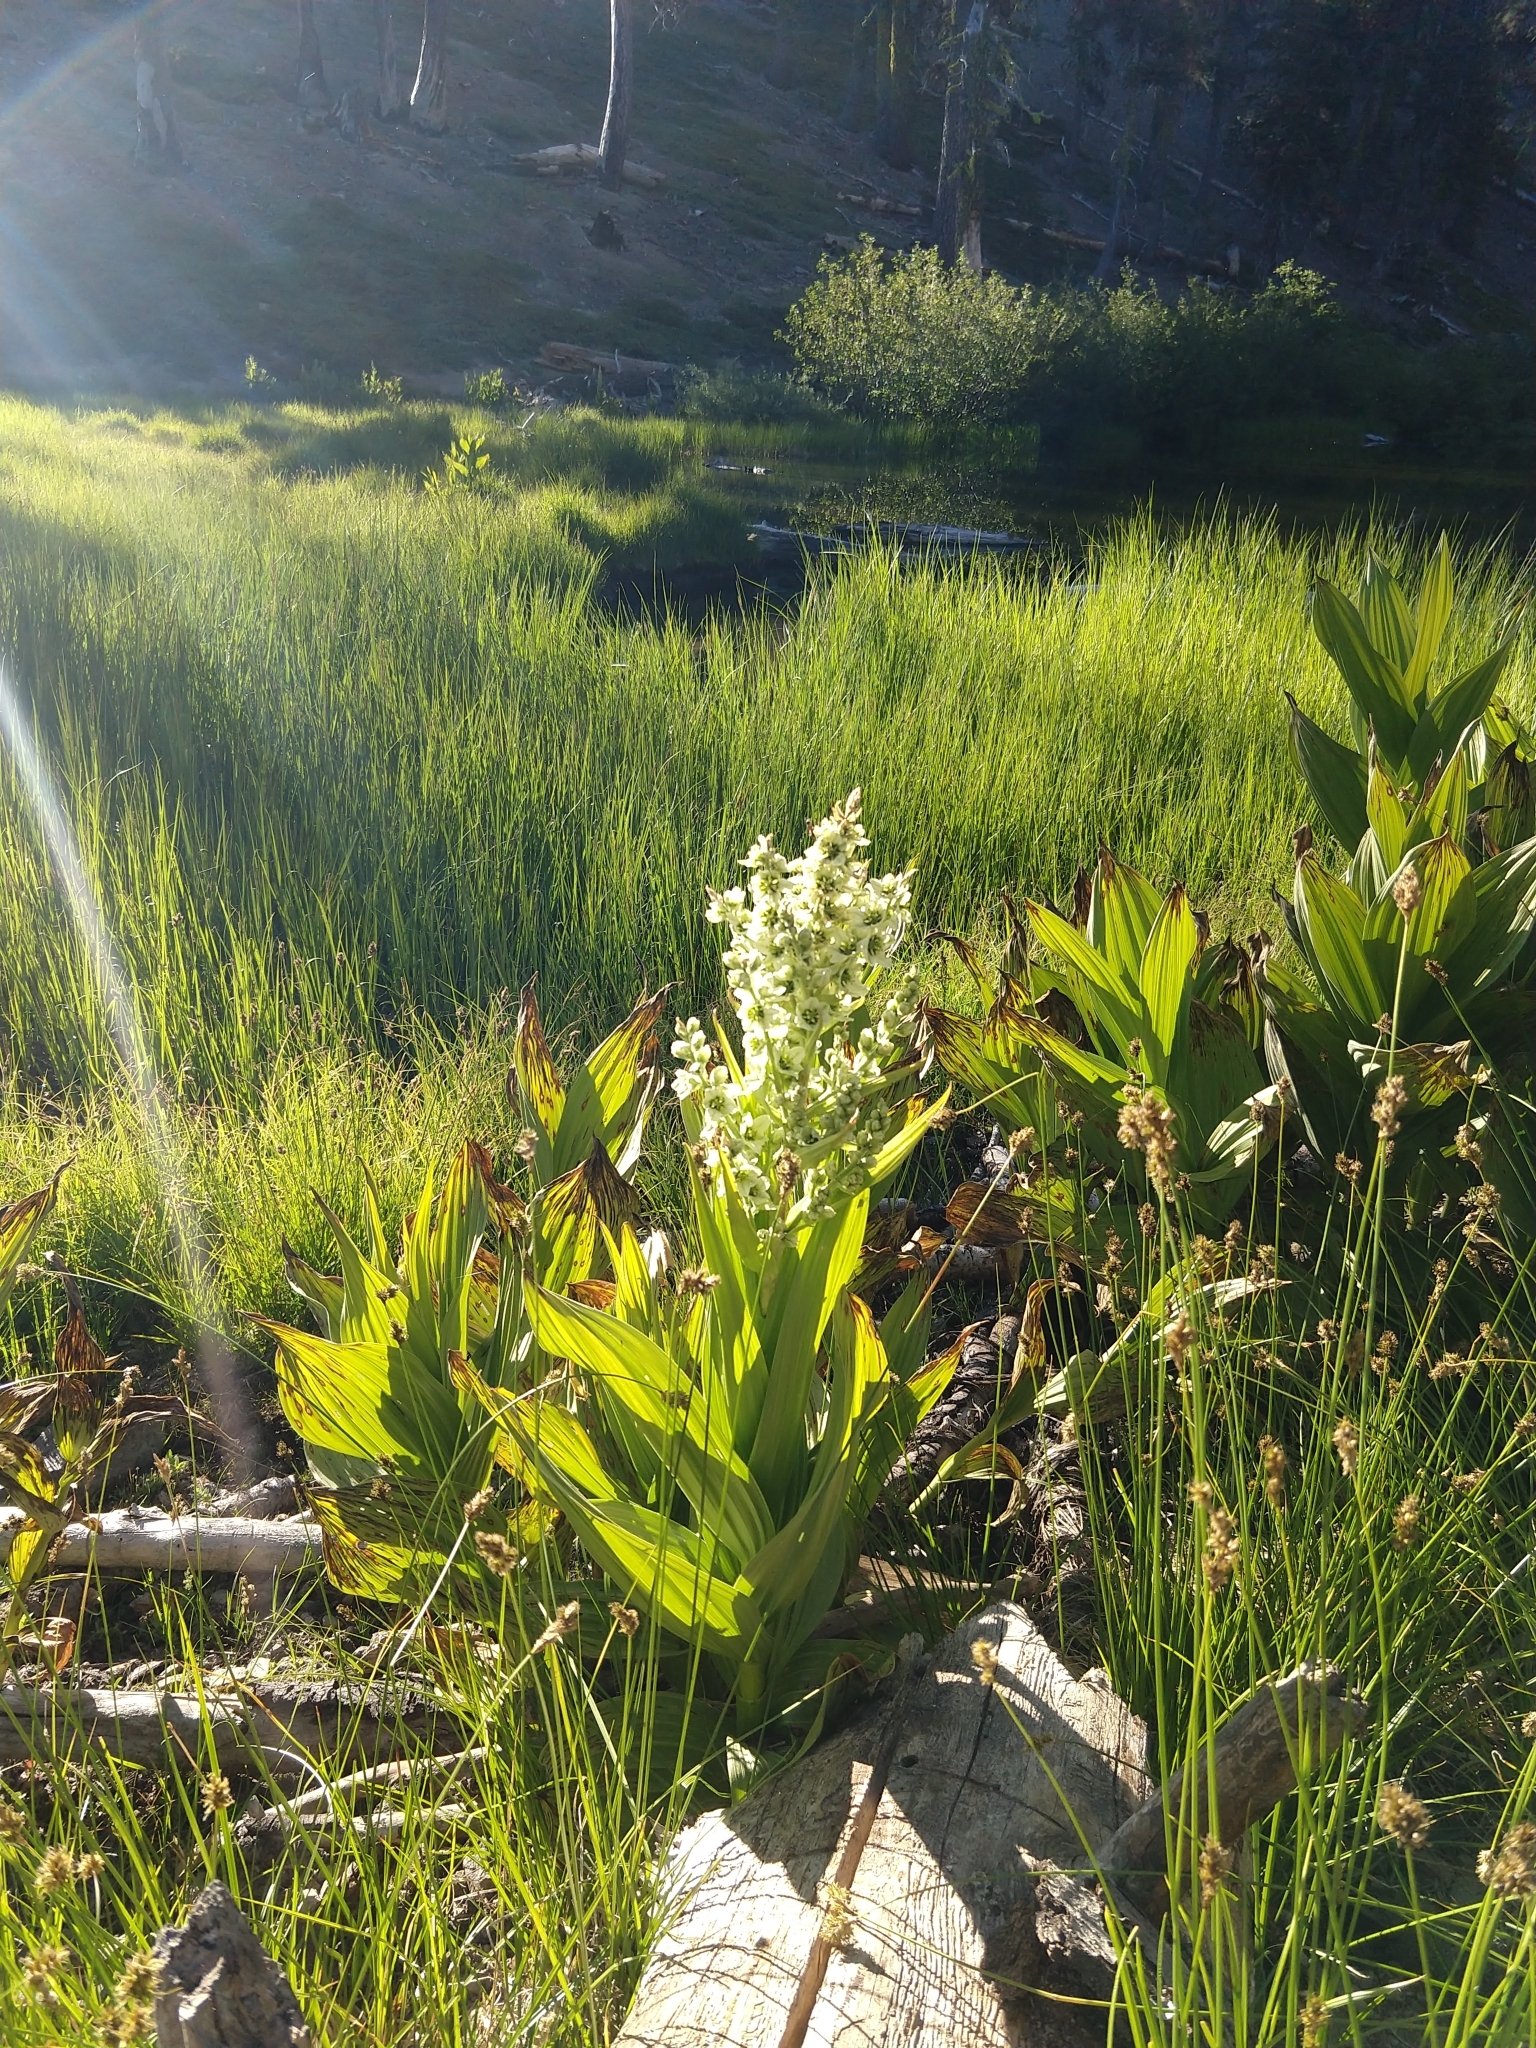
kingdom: Plantae
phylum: Tracheophyta
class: Liliopsida
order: Liliales
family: Melanthiaceae
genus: Veratrum
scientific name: Veratrum californicum
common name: California veratrum
